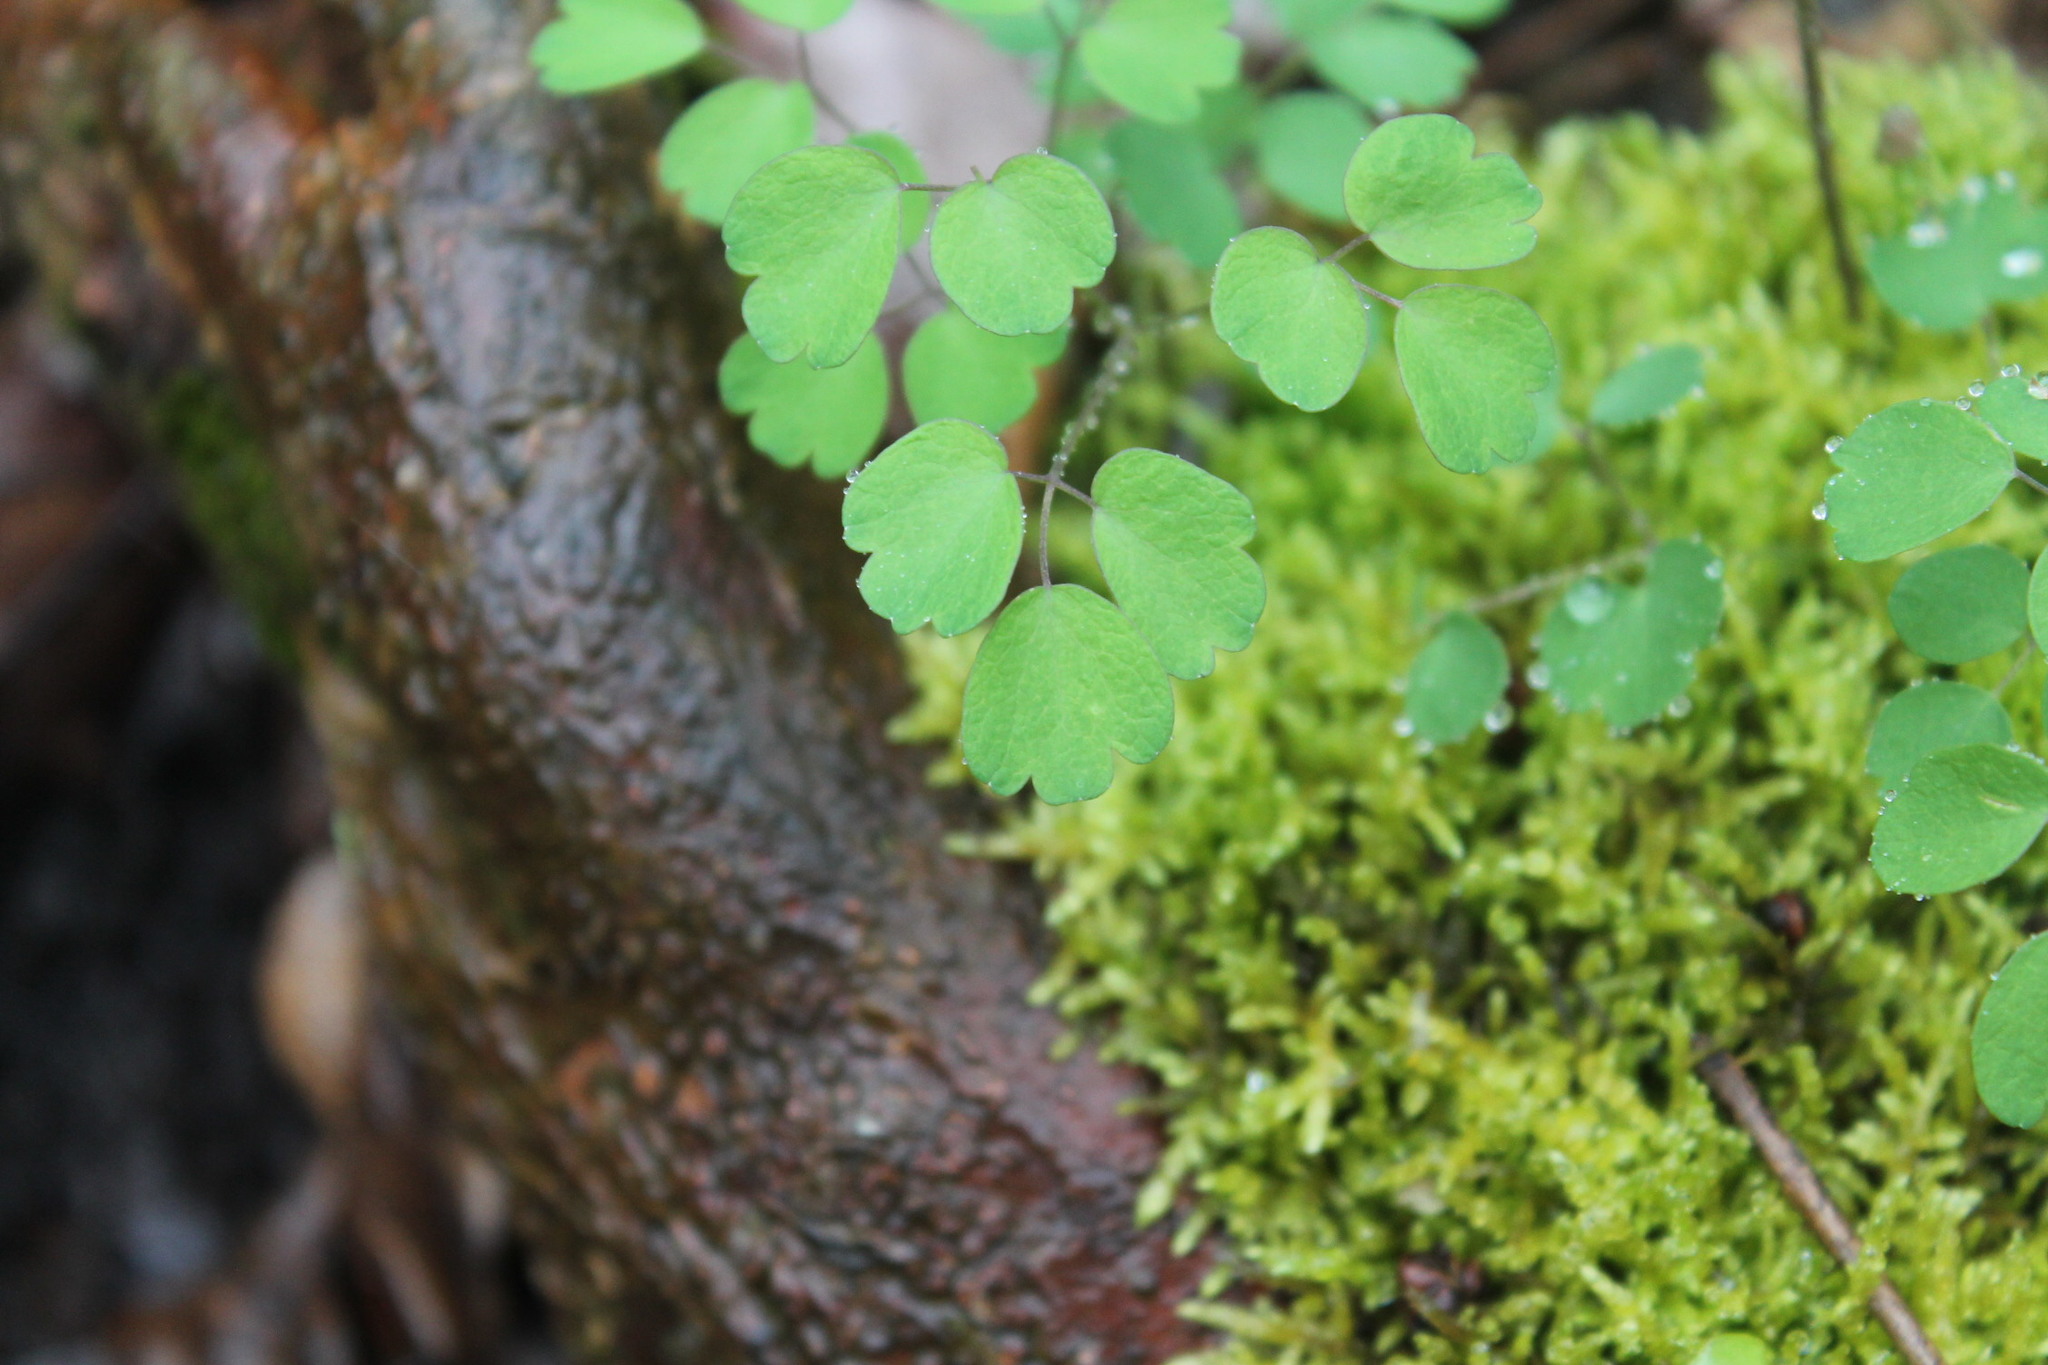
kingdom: Plantae
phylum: Tracheophyta
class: Magnoliopsida
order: Ranunculales
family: Ranunculaceae
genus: Thalictrum
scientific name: Thalictrum dioicum
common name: Early meadow-rue
